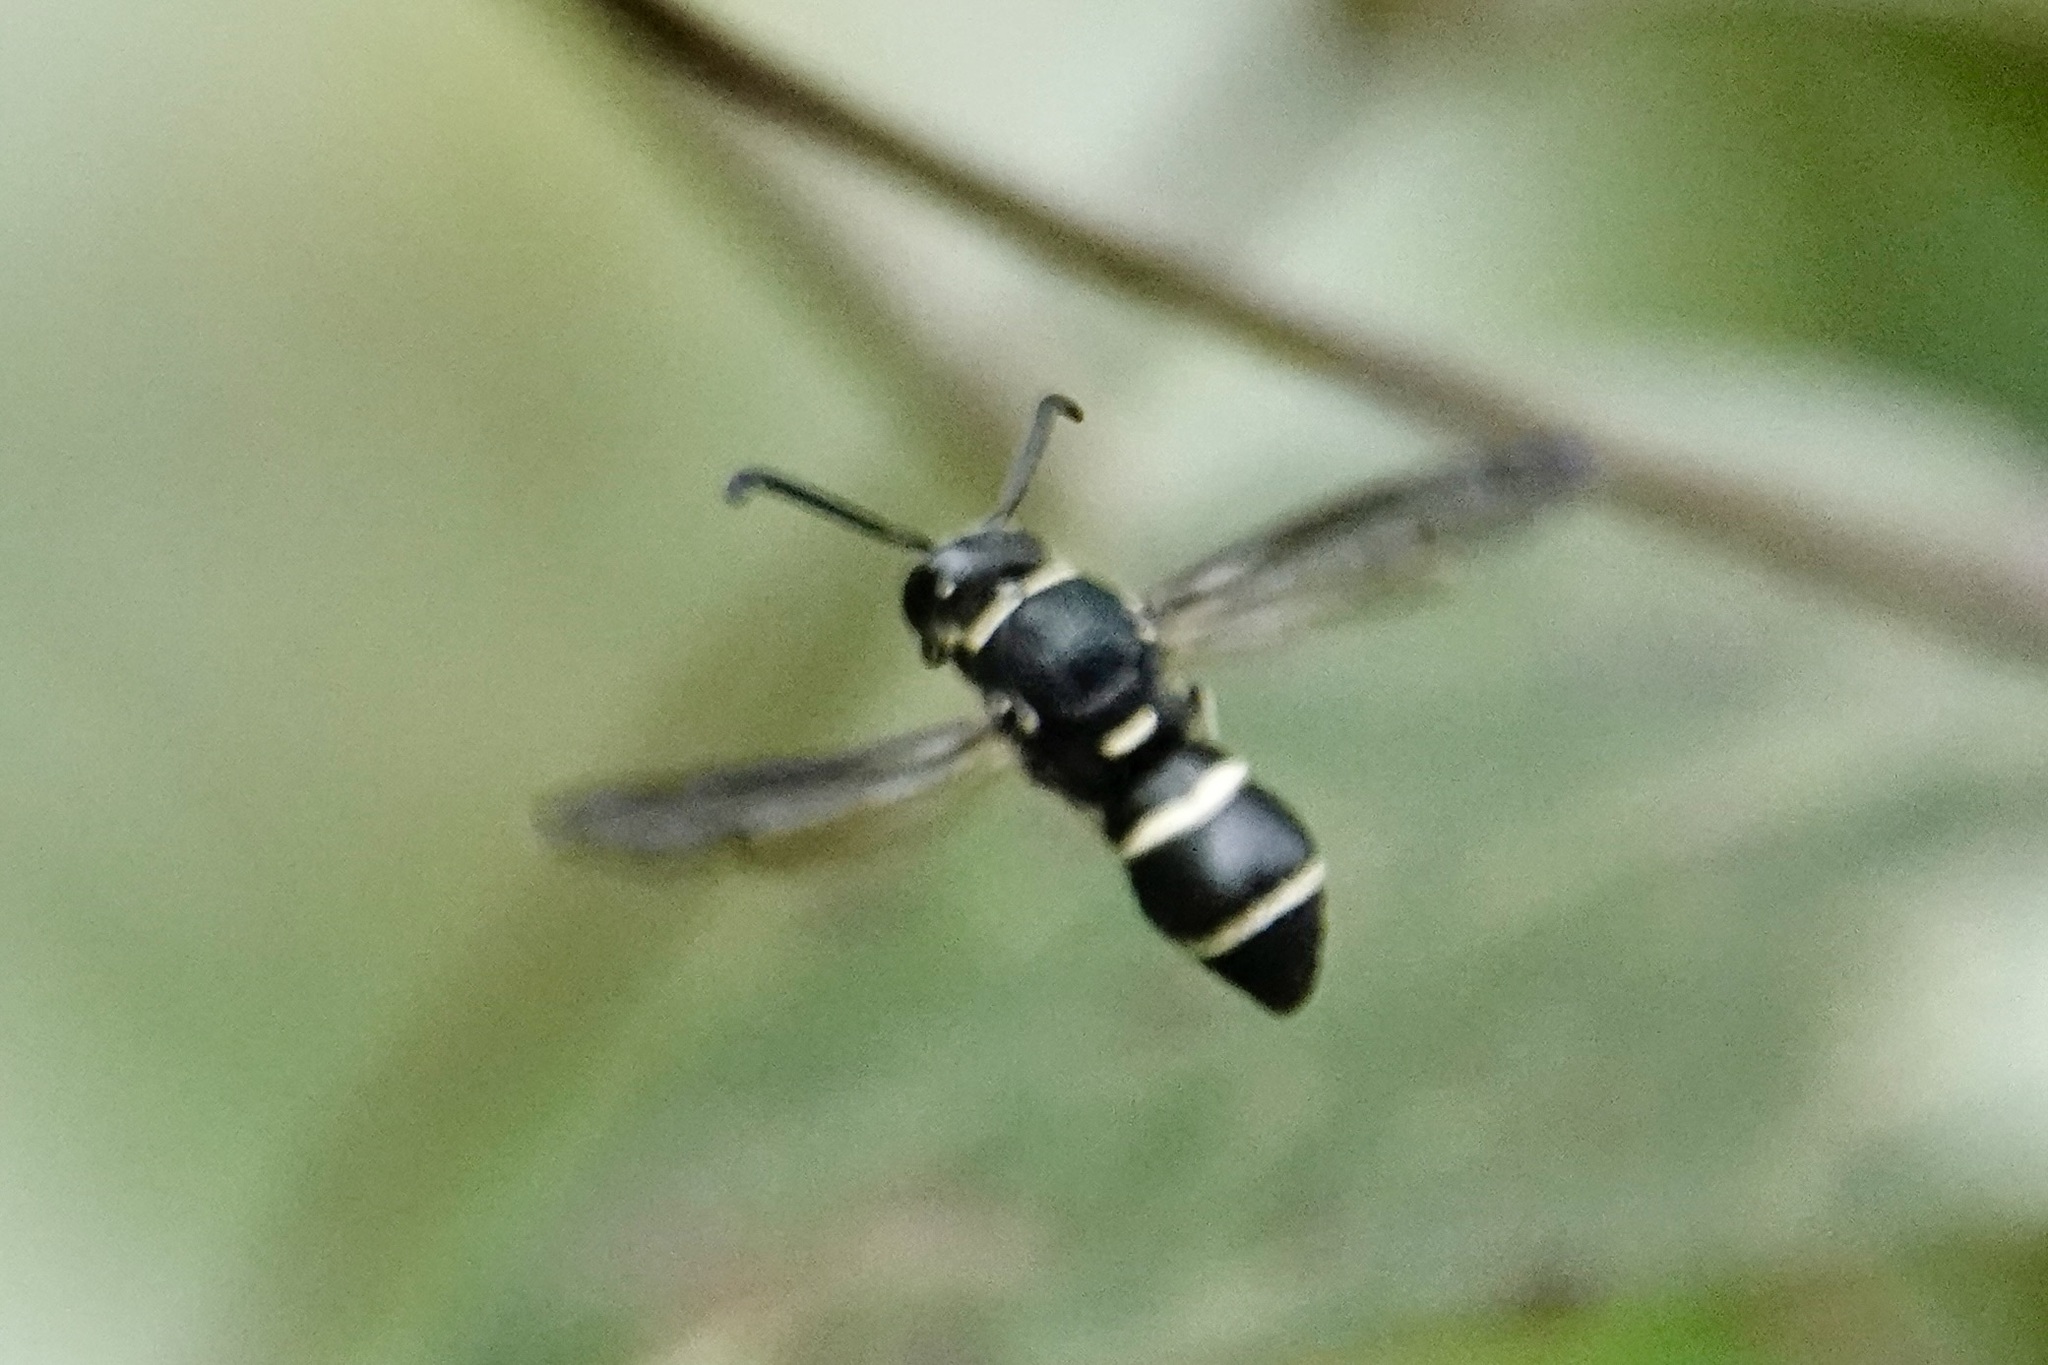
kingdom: Animalia
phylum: Arthropoda
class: Insecta
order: Hymenoptera
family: Eumenidae
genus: Euodynerus
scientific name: Euodynerus
